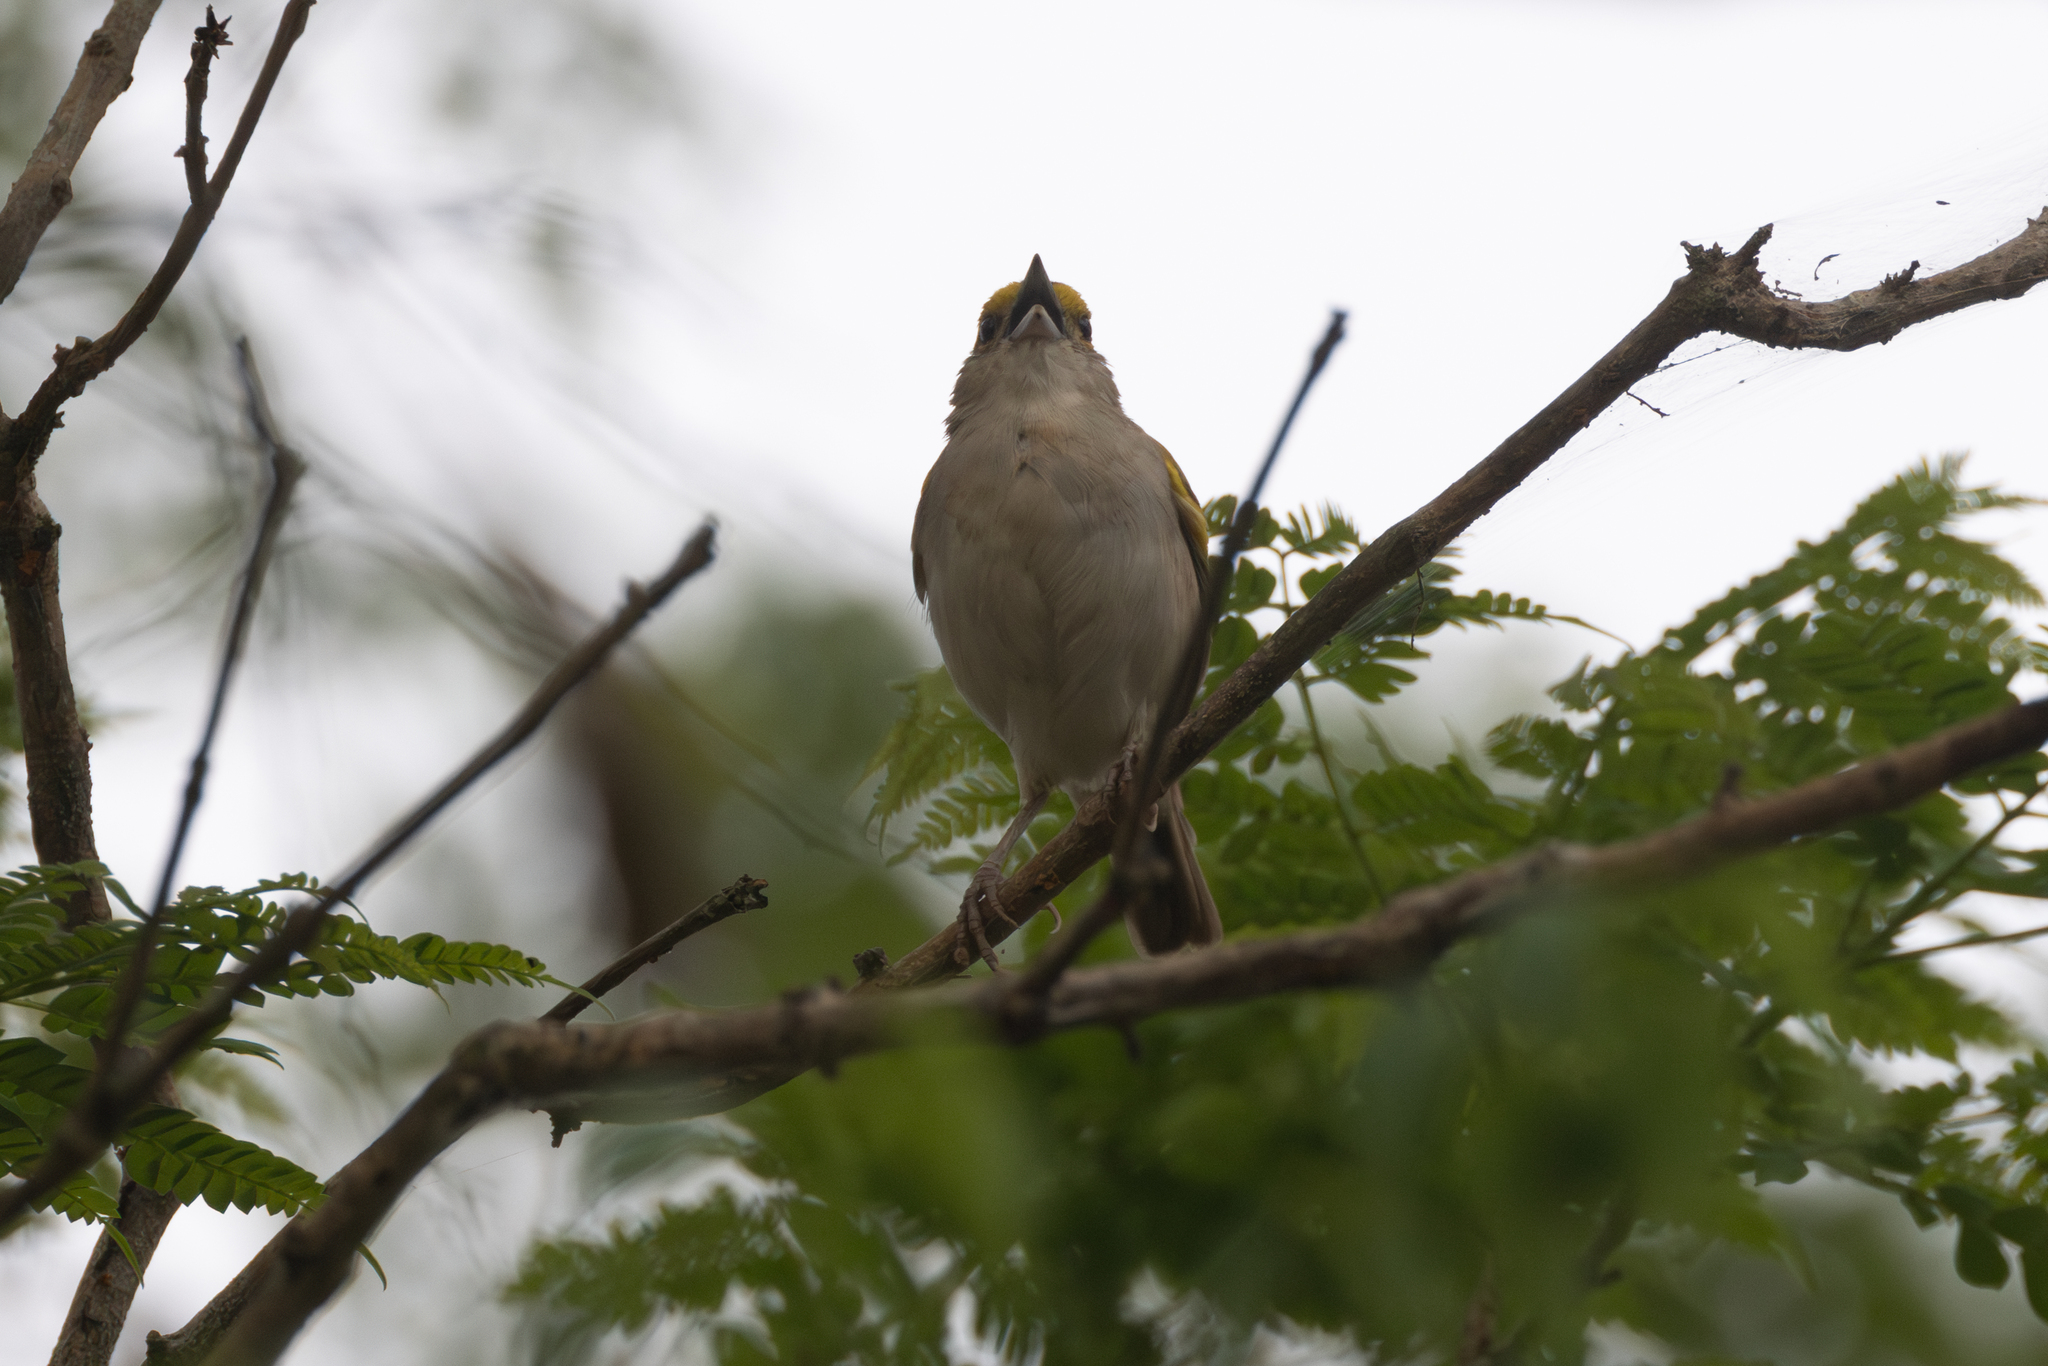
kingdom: Animalia
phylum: Chordata
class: Aves
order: Passeriformes
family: Passerellidae
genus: Ammodramus
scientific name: Ammodramus aurifrons
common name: Yellow-browed sparrow
